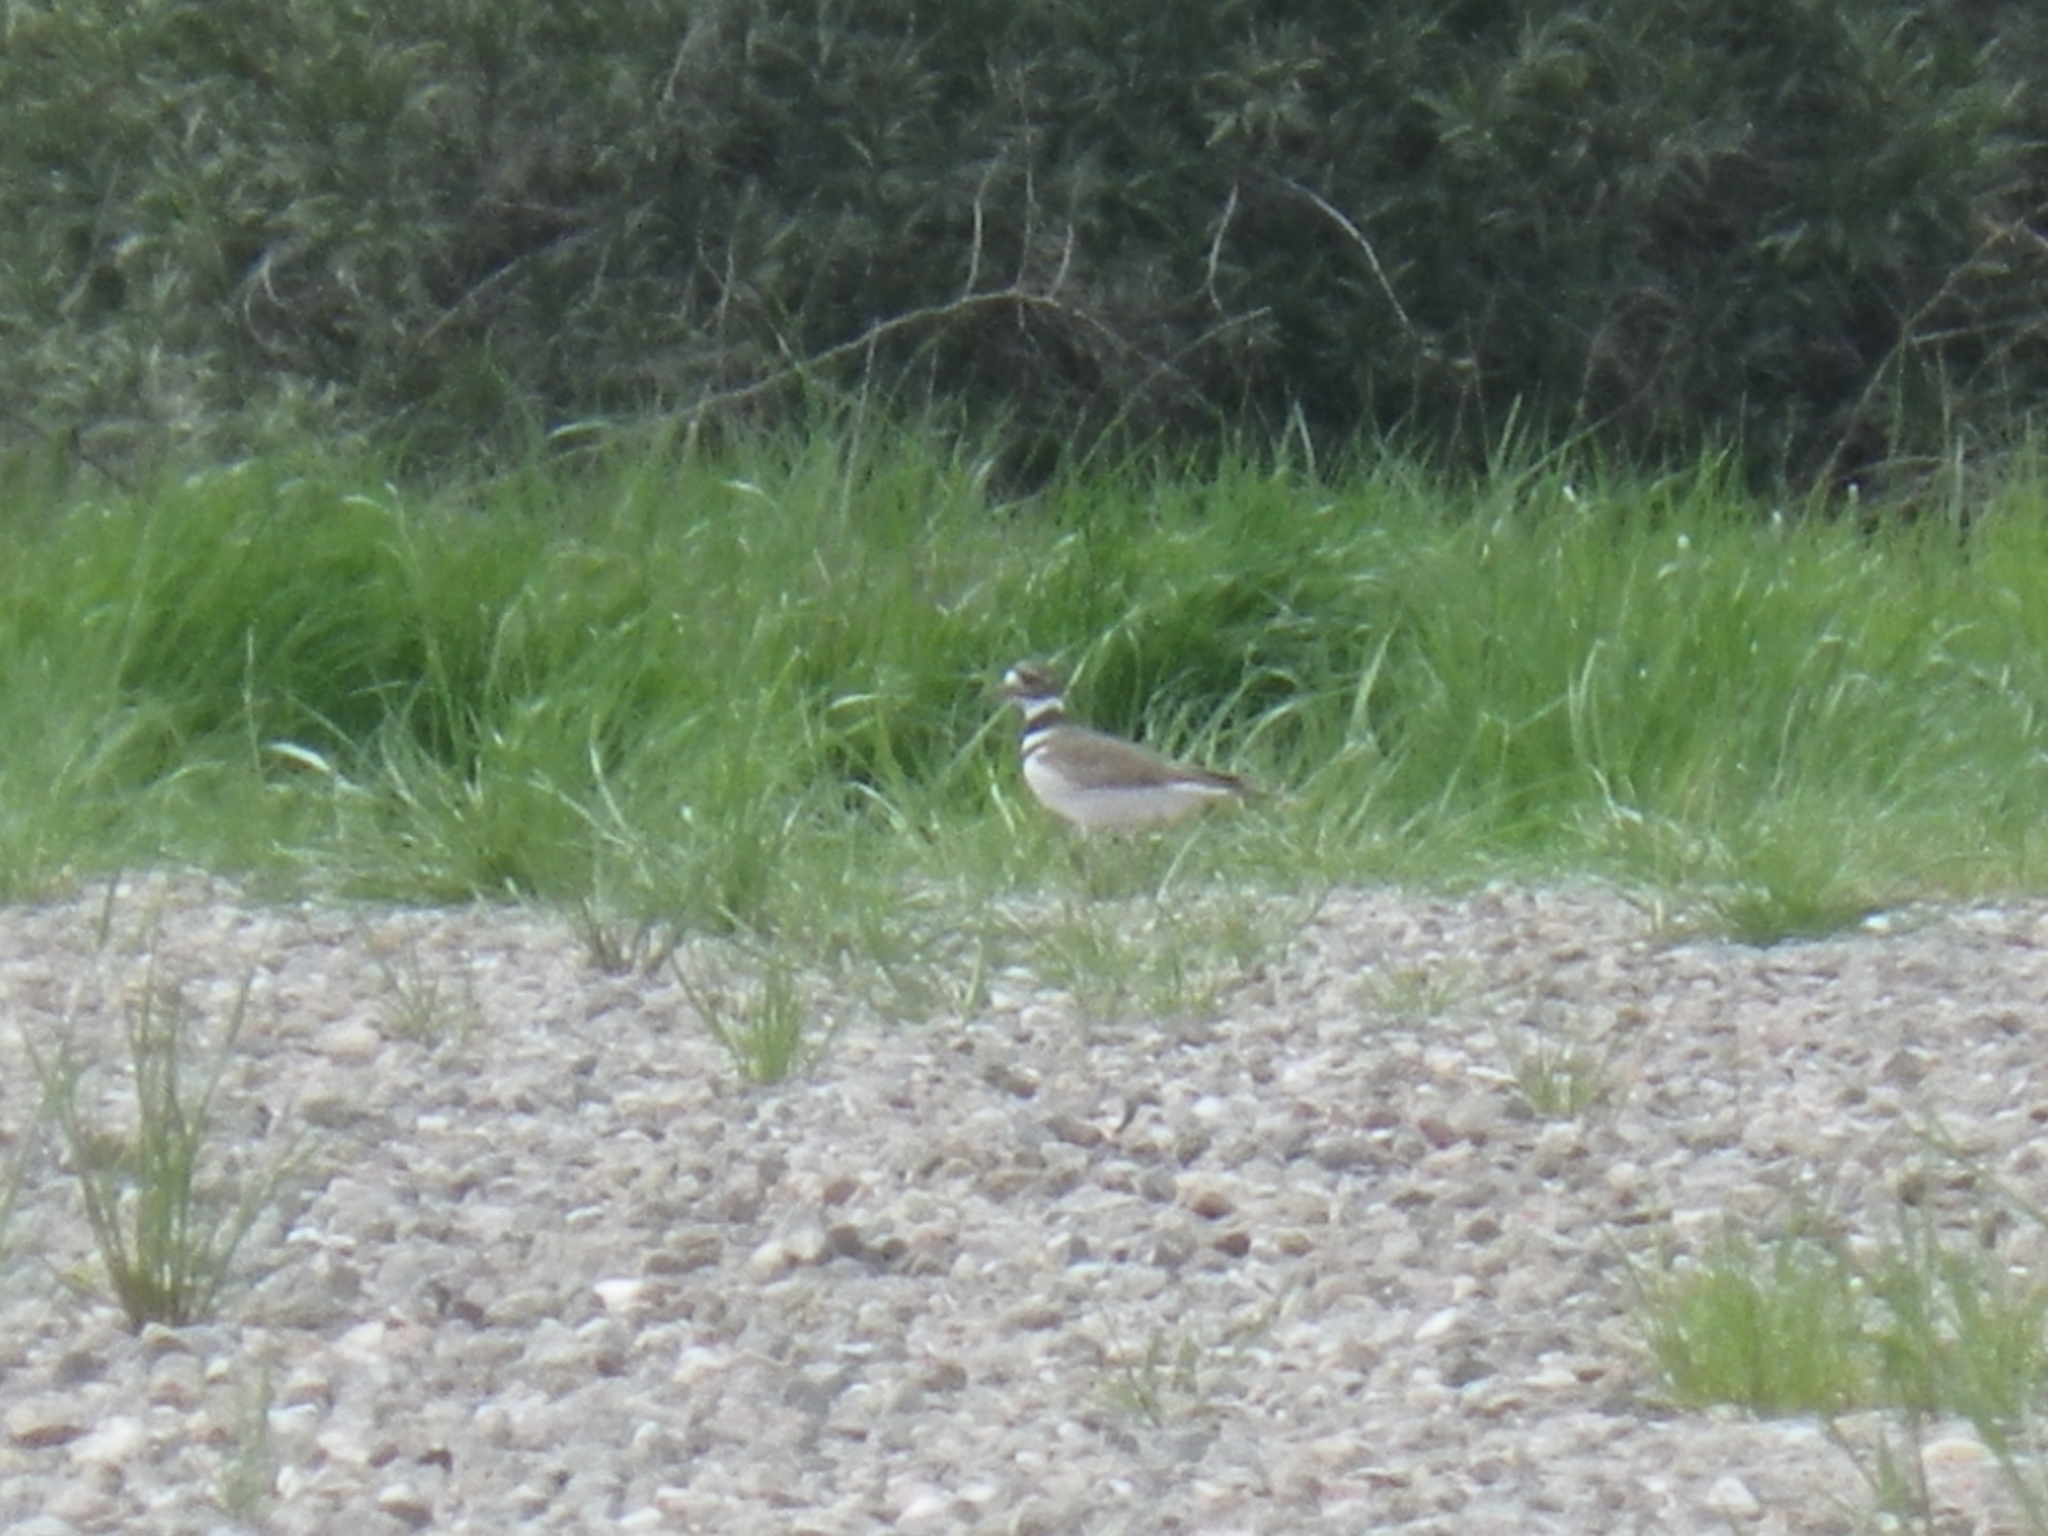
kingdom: Animalia
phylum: Chordata
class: Aves
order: Charadriiformes
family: Charadriidae
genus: Charadrius
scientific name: Charadrius vociferus
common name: Killdeer
